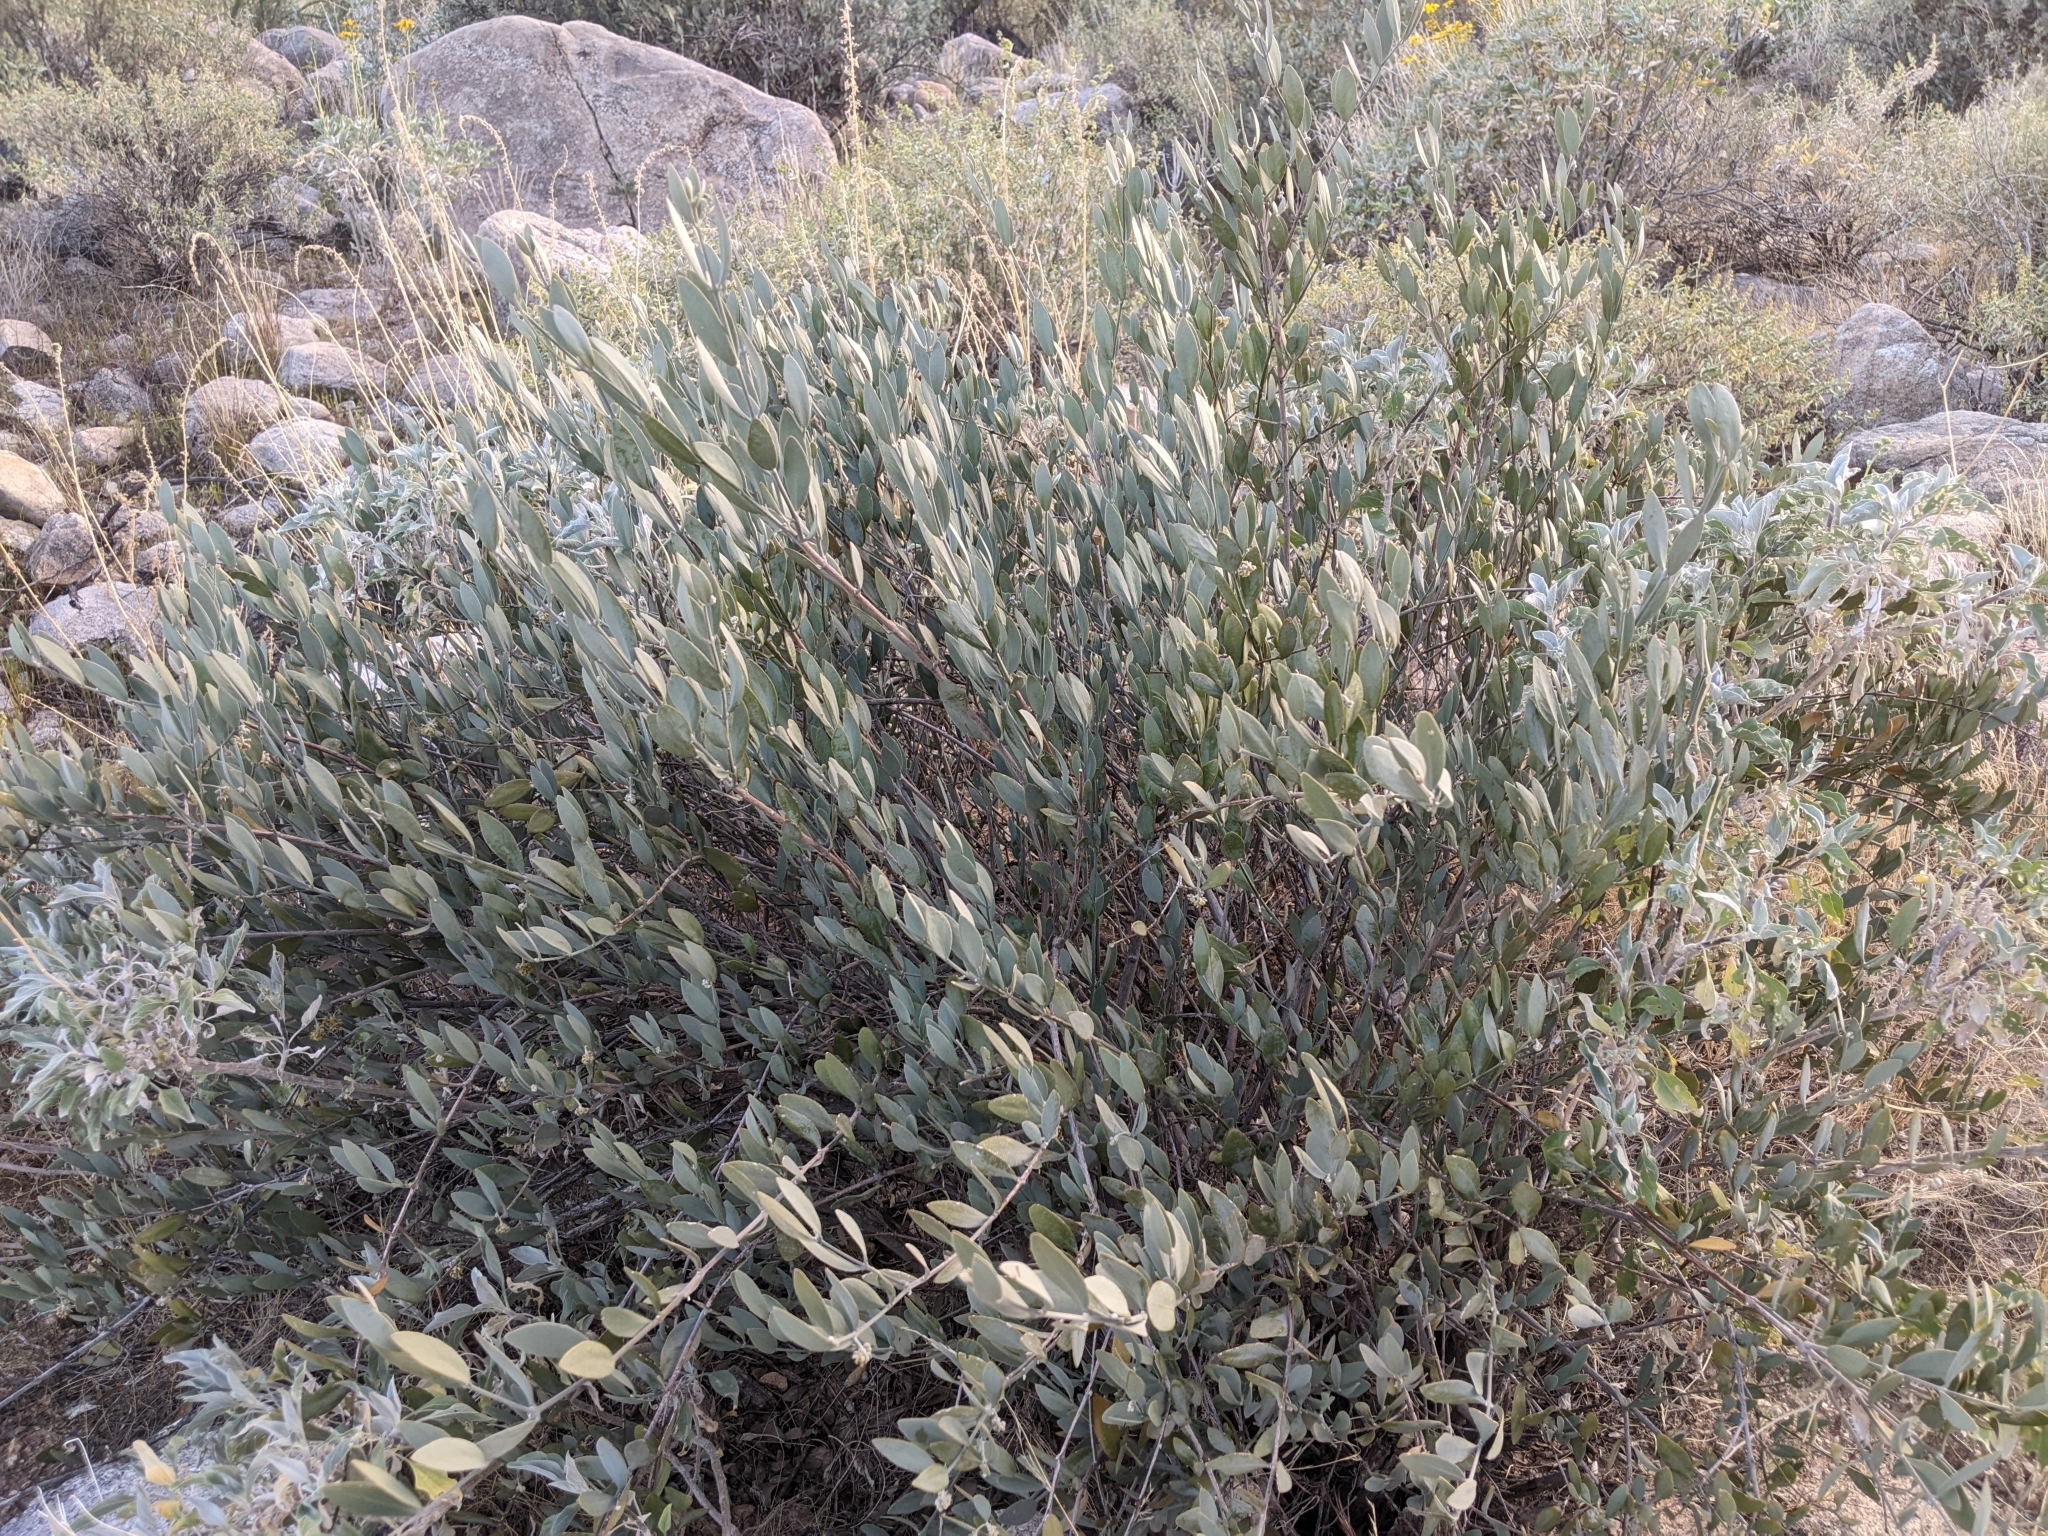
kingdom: Plantae
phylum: Tracheophyta
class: Magnoliopsida
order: Caryophyllales
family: Simmondsiaceae
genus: Simmondsia
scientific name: Simmondsia chinensis
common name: Jojoba
